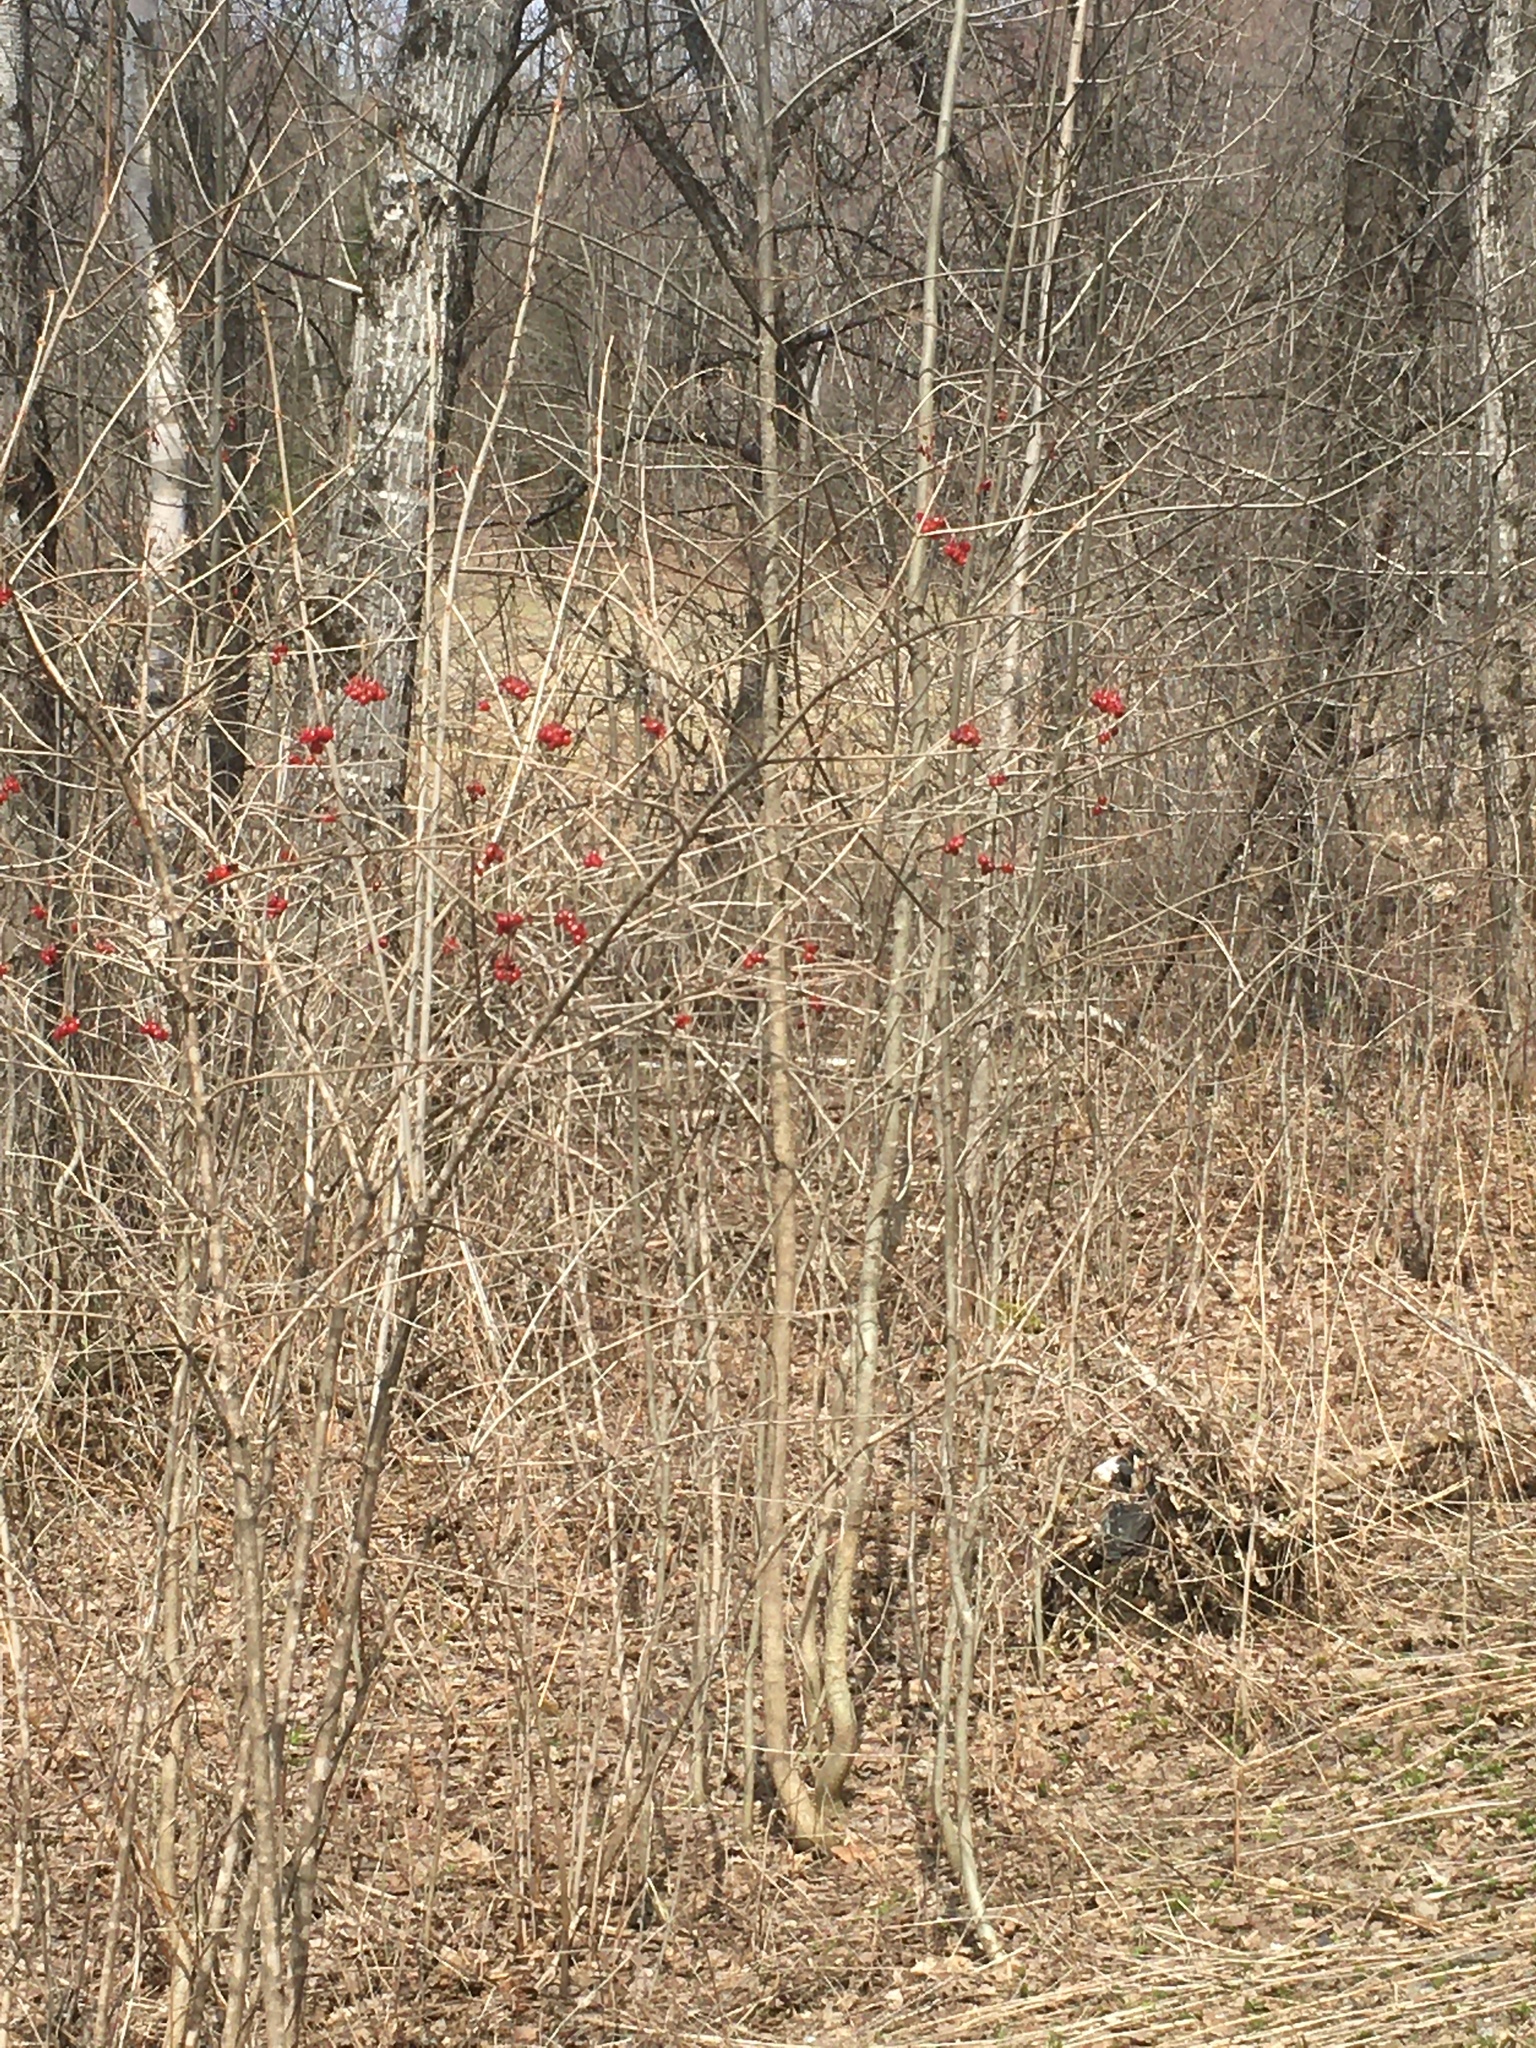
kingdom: Plantae
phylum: Tracheophyta
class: Magnoliopsida
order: Dipsacales
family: Viburnaceae
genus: Viburnum
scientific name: Viburnum opulus
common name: Guelder-rose
